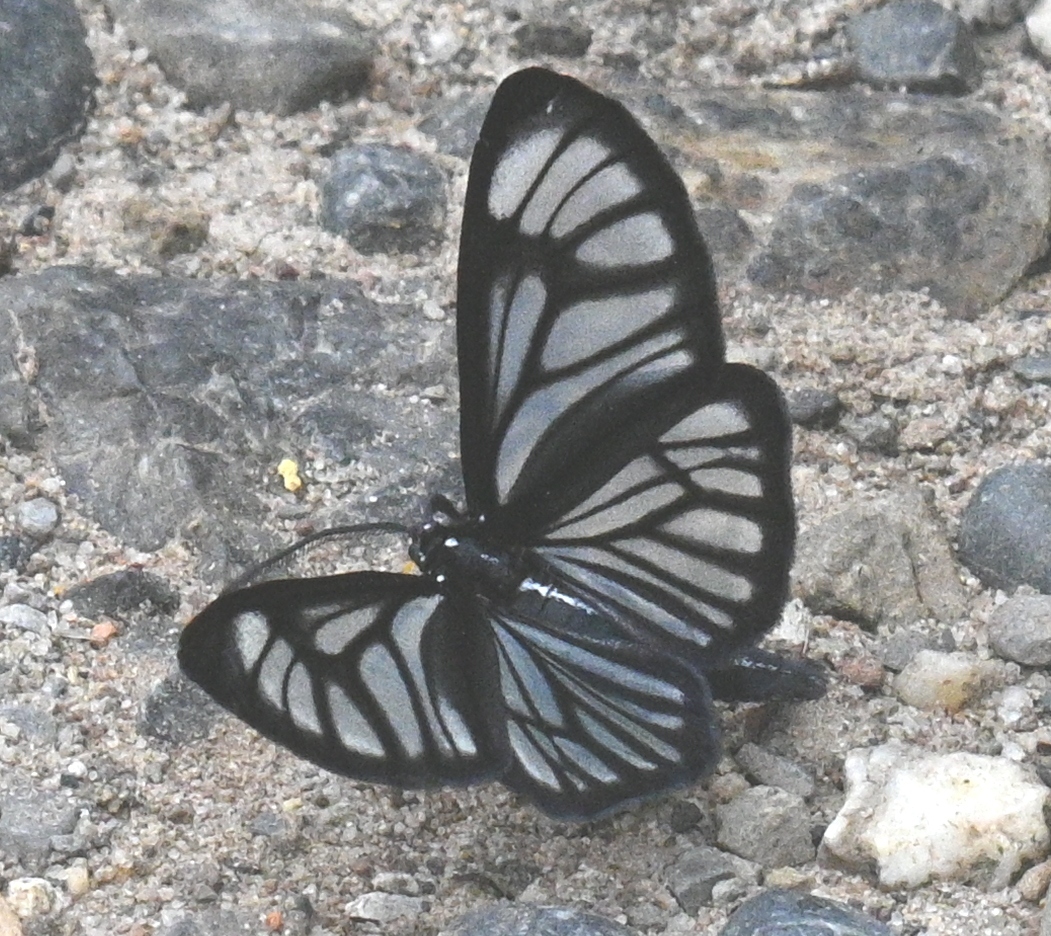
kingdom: Animalia
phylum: Arthropoda
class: Insecta
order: Lepidoptera
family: Geometridae
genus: Gonora
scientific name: Gonora hyelosioides
